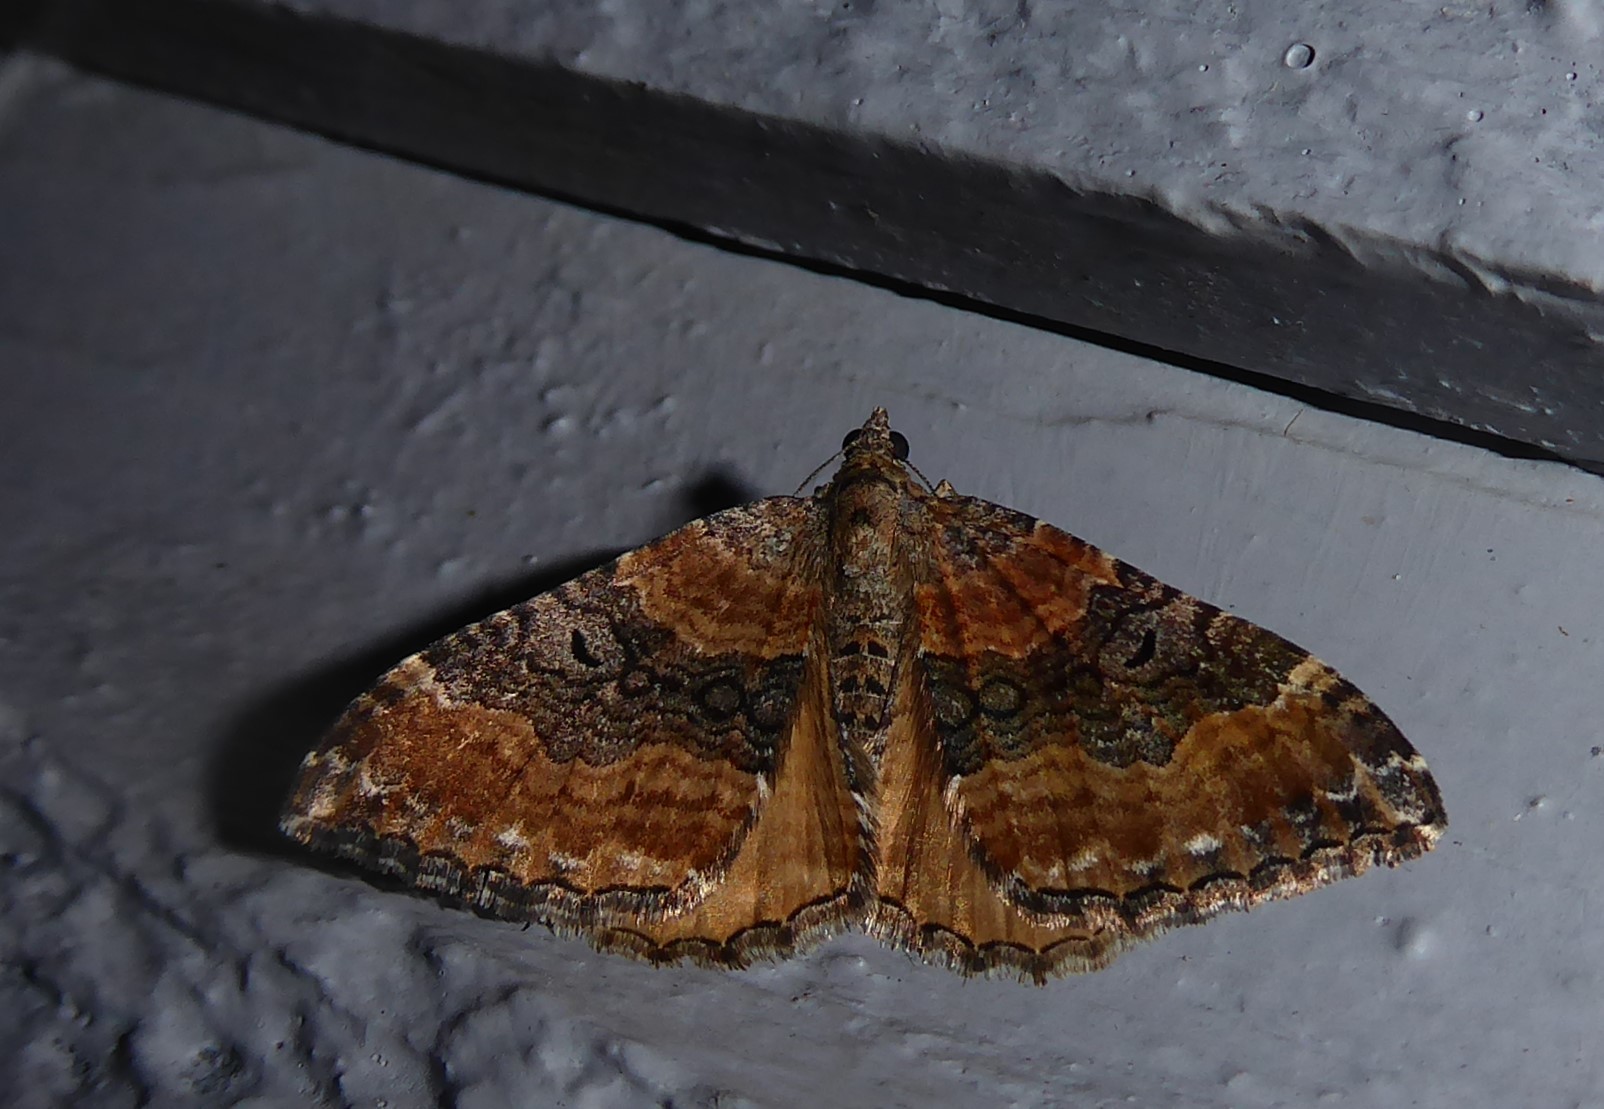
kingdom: Animalia
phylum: Arthropoda
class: Insecta
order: Lepidoptera
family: Geometridae
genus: Hydriomena
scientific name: Hydriomena deltoidata
